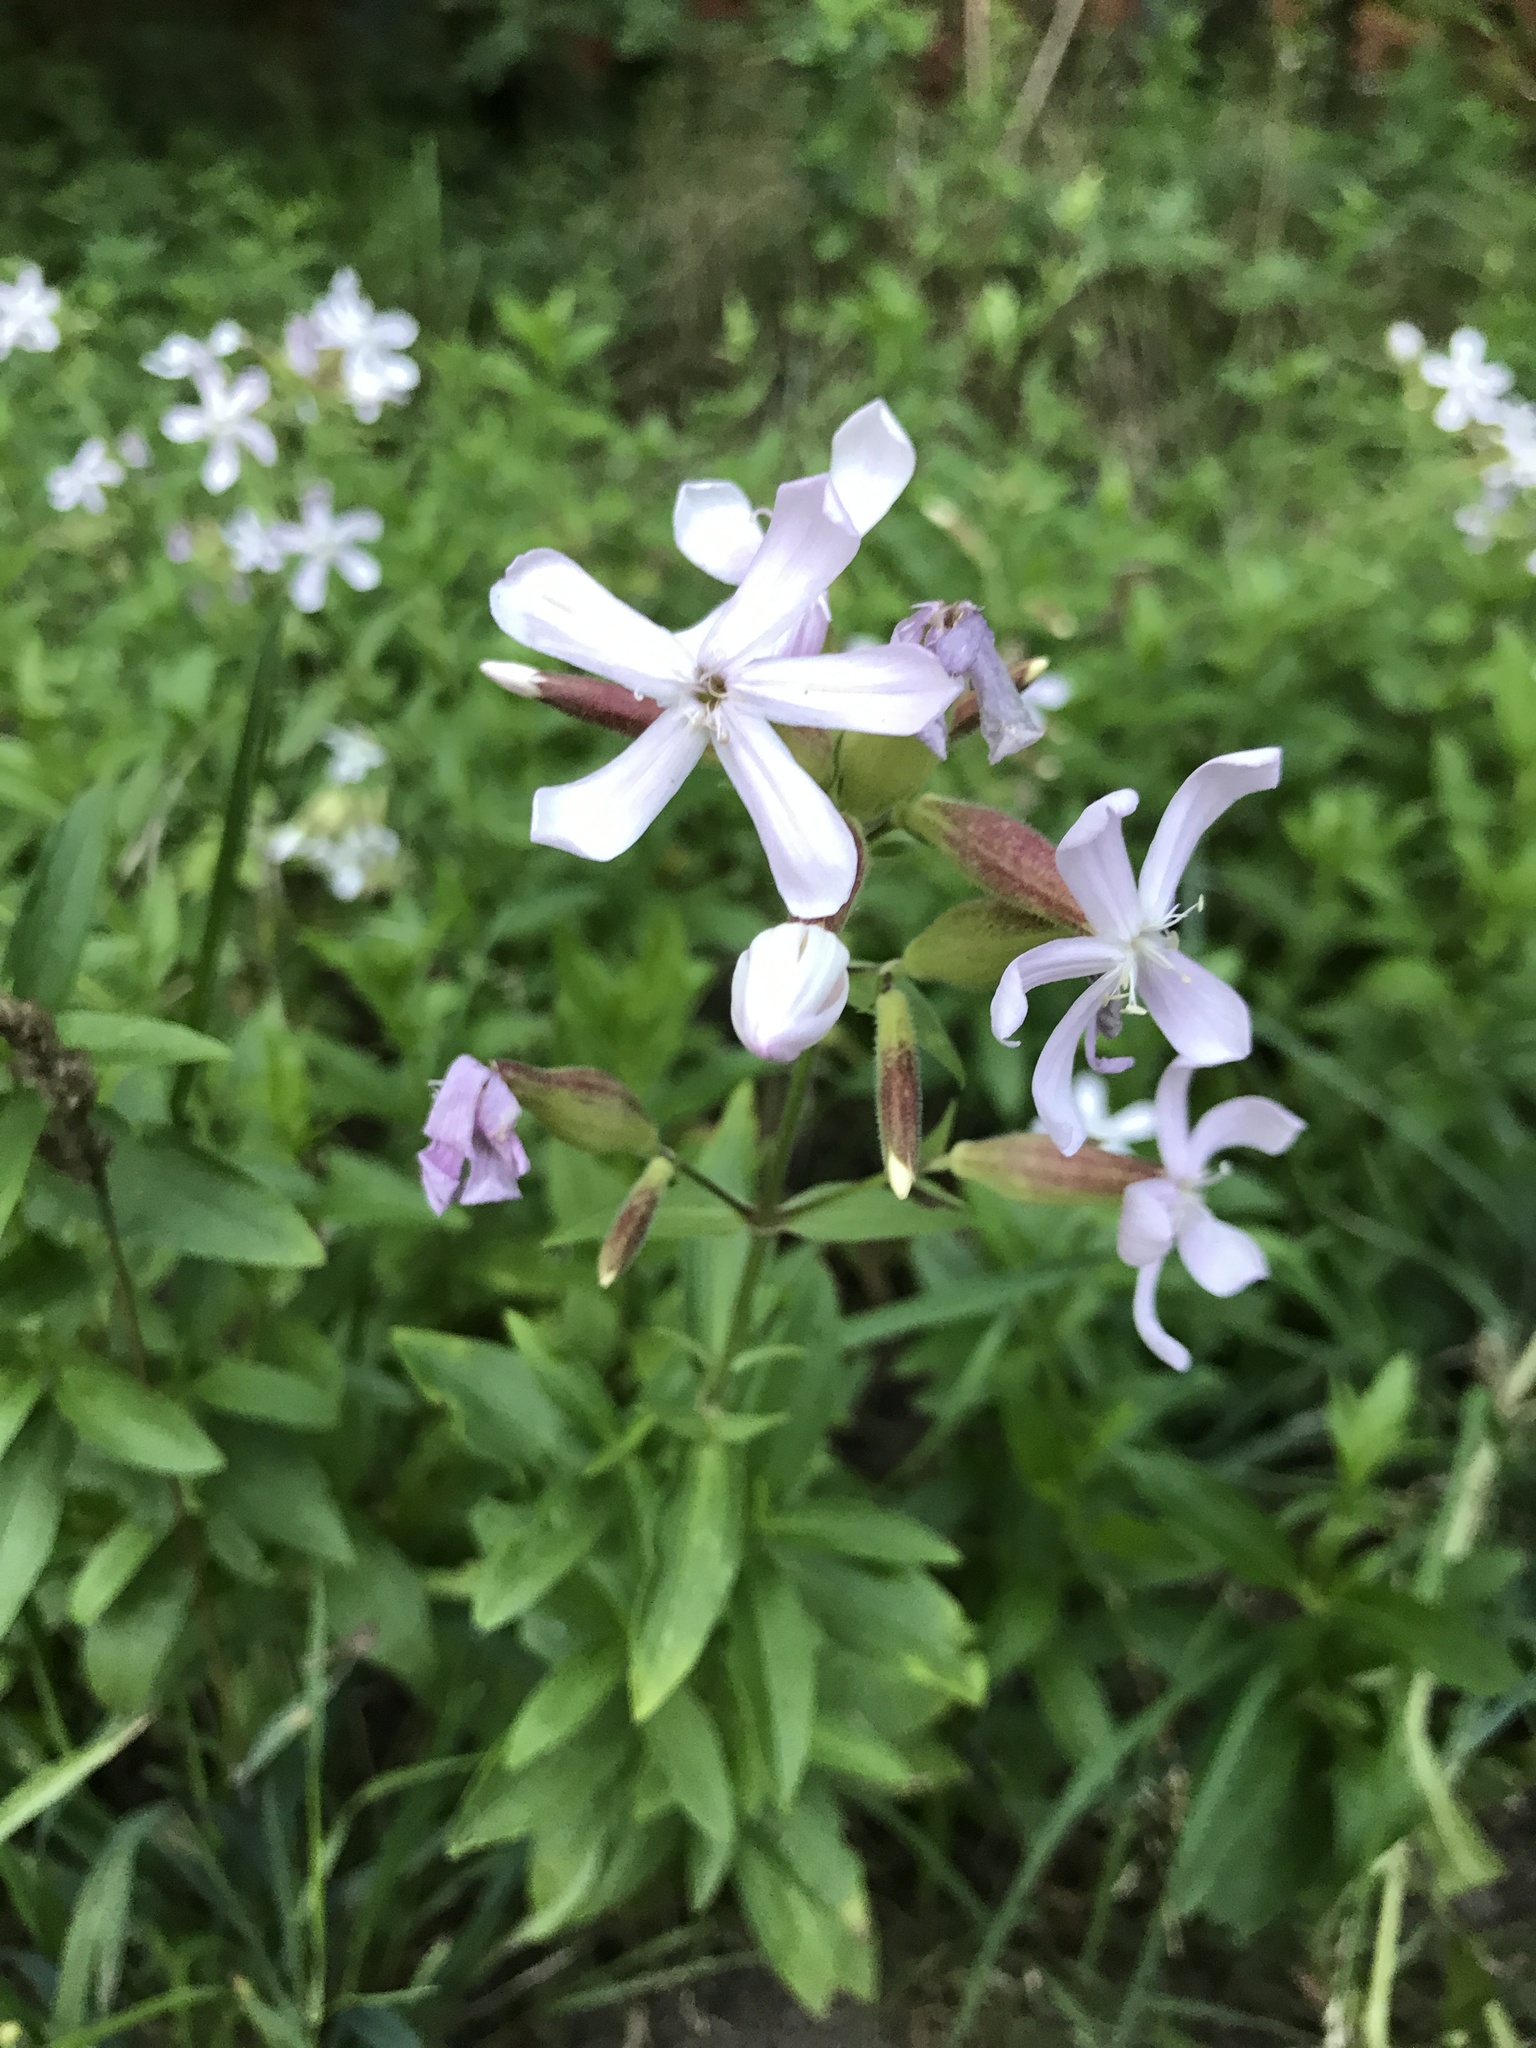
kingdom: Plantae
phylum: Tracheophyta
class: Magnoliopsida
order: Caryophyllales
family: Caryophyllaceae
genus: Saponaria
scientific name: Saponaria officinalis
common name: Soapwort
